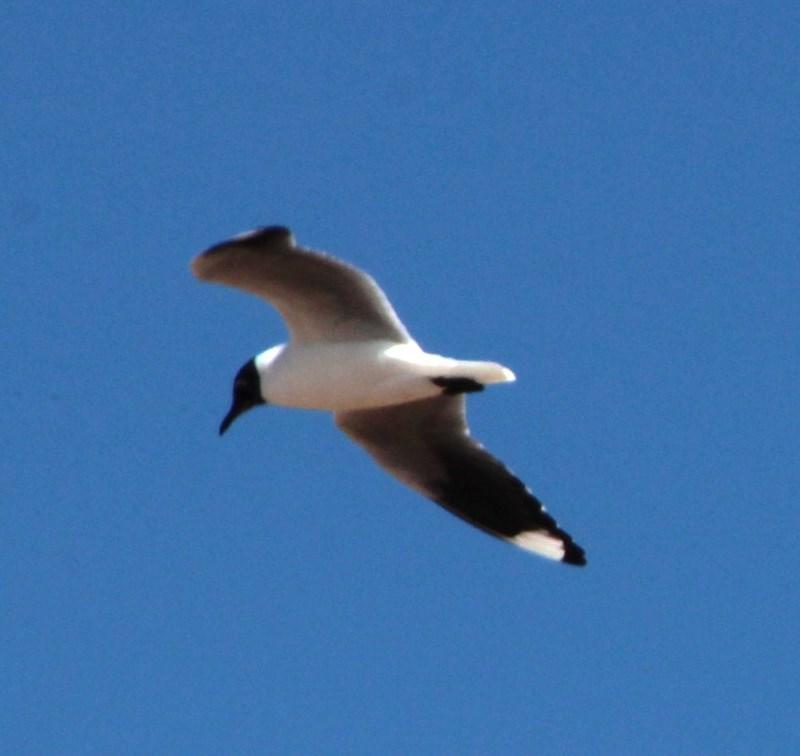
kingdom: Animalia
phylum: Chordata
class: Aves
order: Charadriiformes
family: Laridae
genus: Chroicocephalus
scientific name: Chroicocephalus serranus
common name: Andean gull
